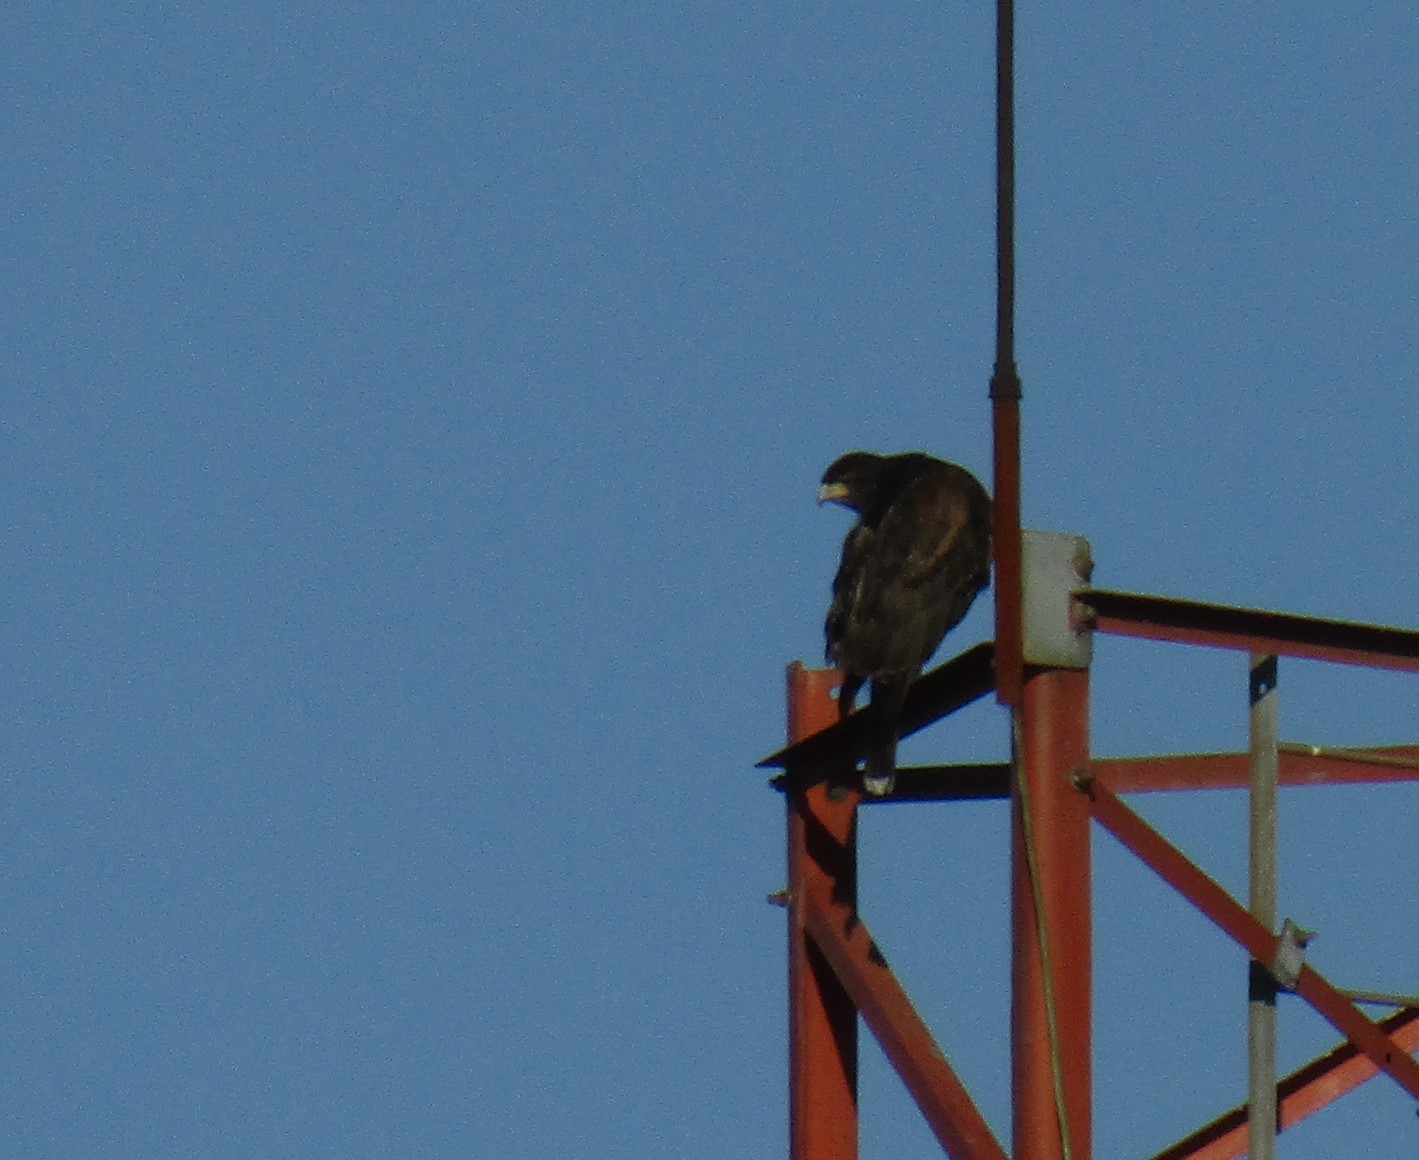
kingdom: Animalia
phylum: Chordata
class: Aves
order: Accipitriformes
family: Accipitridae
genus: Parabuteo
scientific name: Parabuteo unicinctus
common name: Harris's hawk
